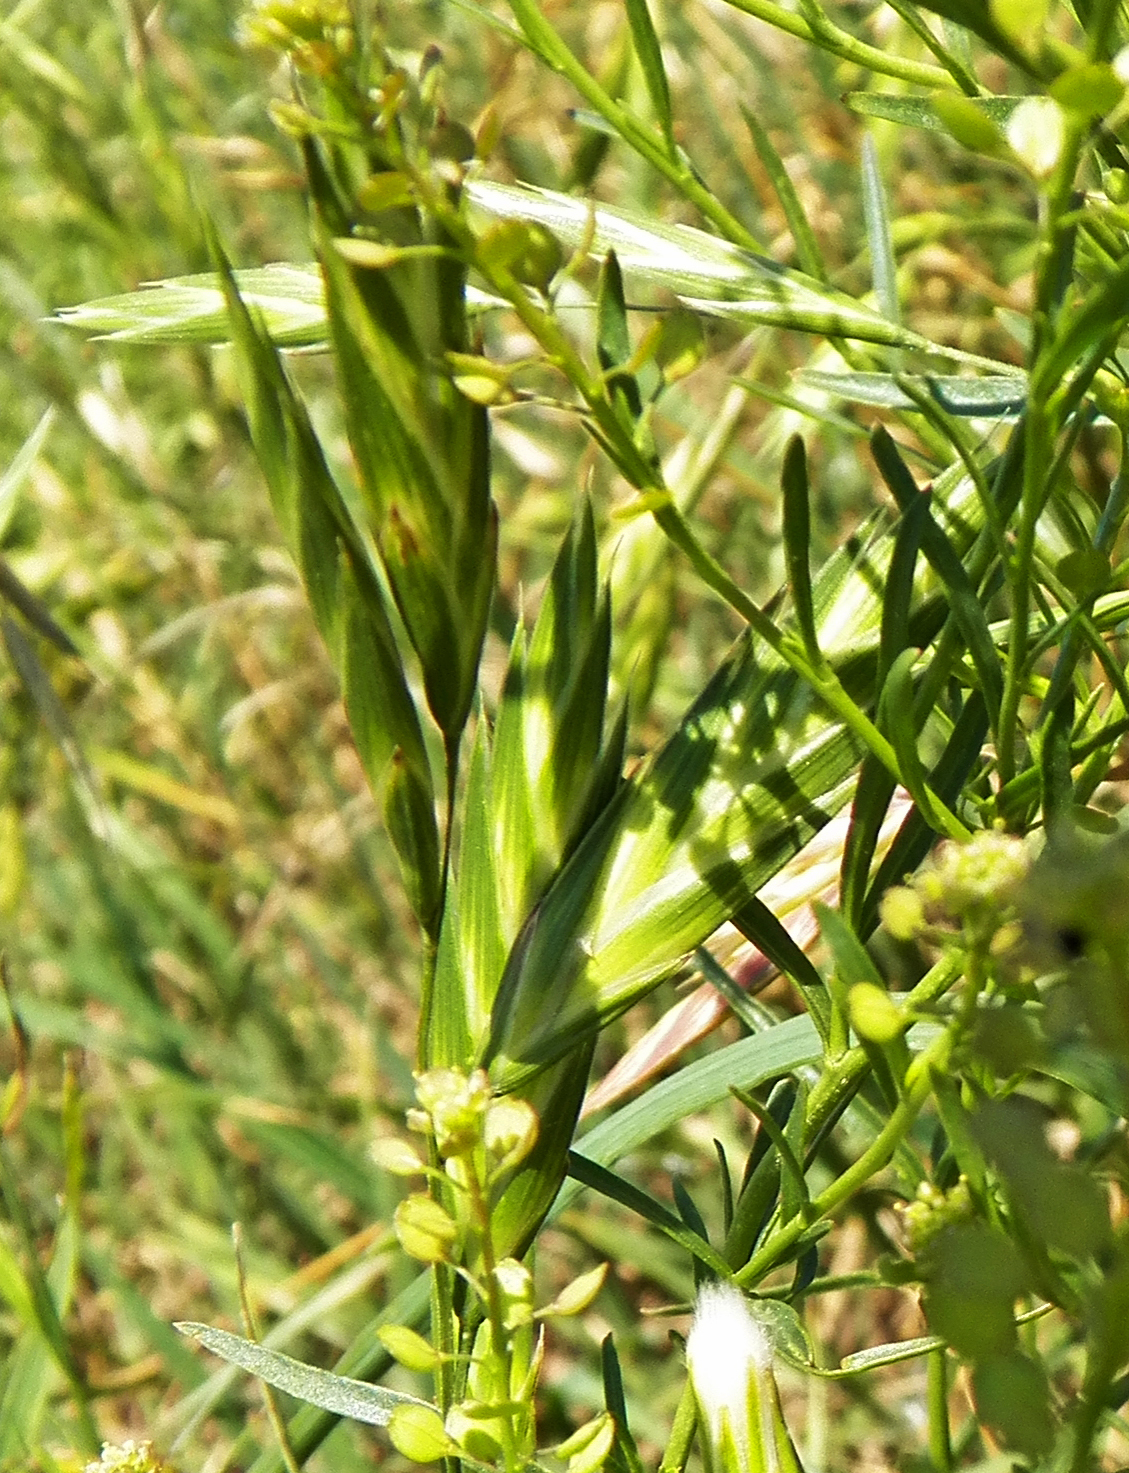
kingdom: Plantae
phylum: Tracheophyta
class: Liliopsida
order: Poales
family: Poaceae
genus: Bromus
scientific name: Bromus catharticus
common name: Rescuegrass
